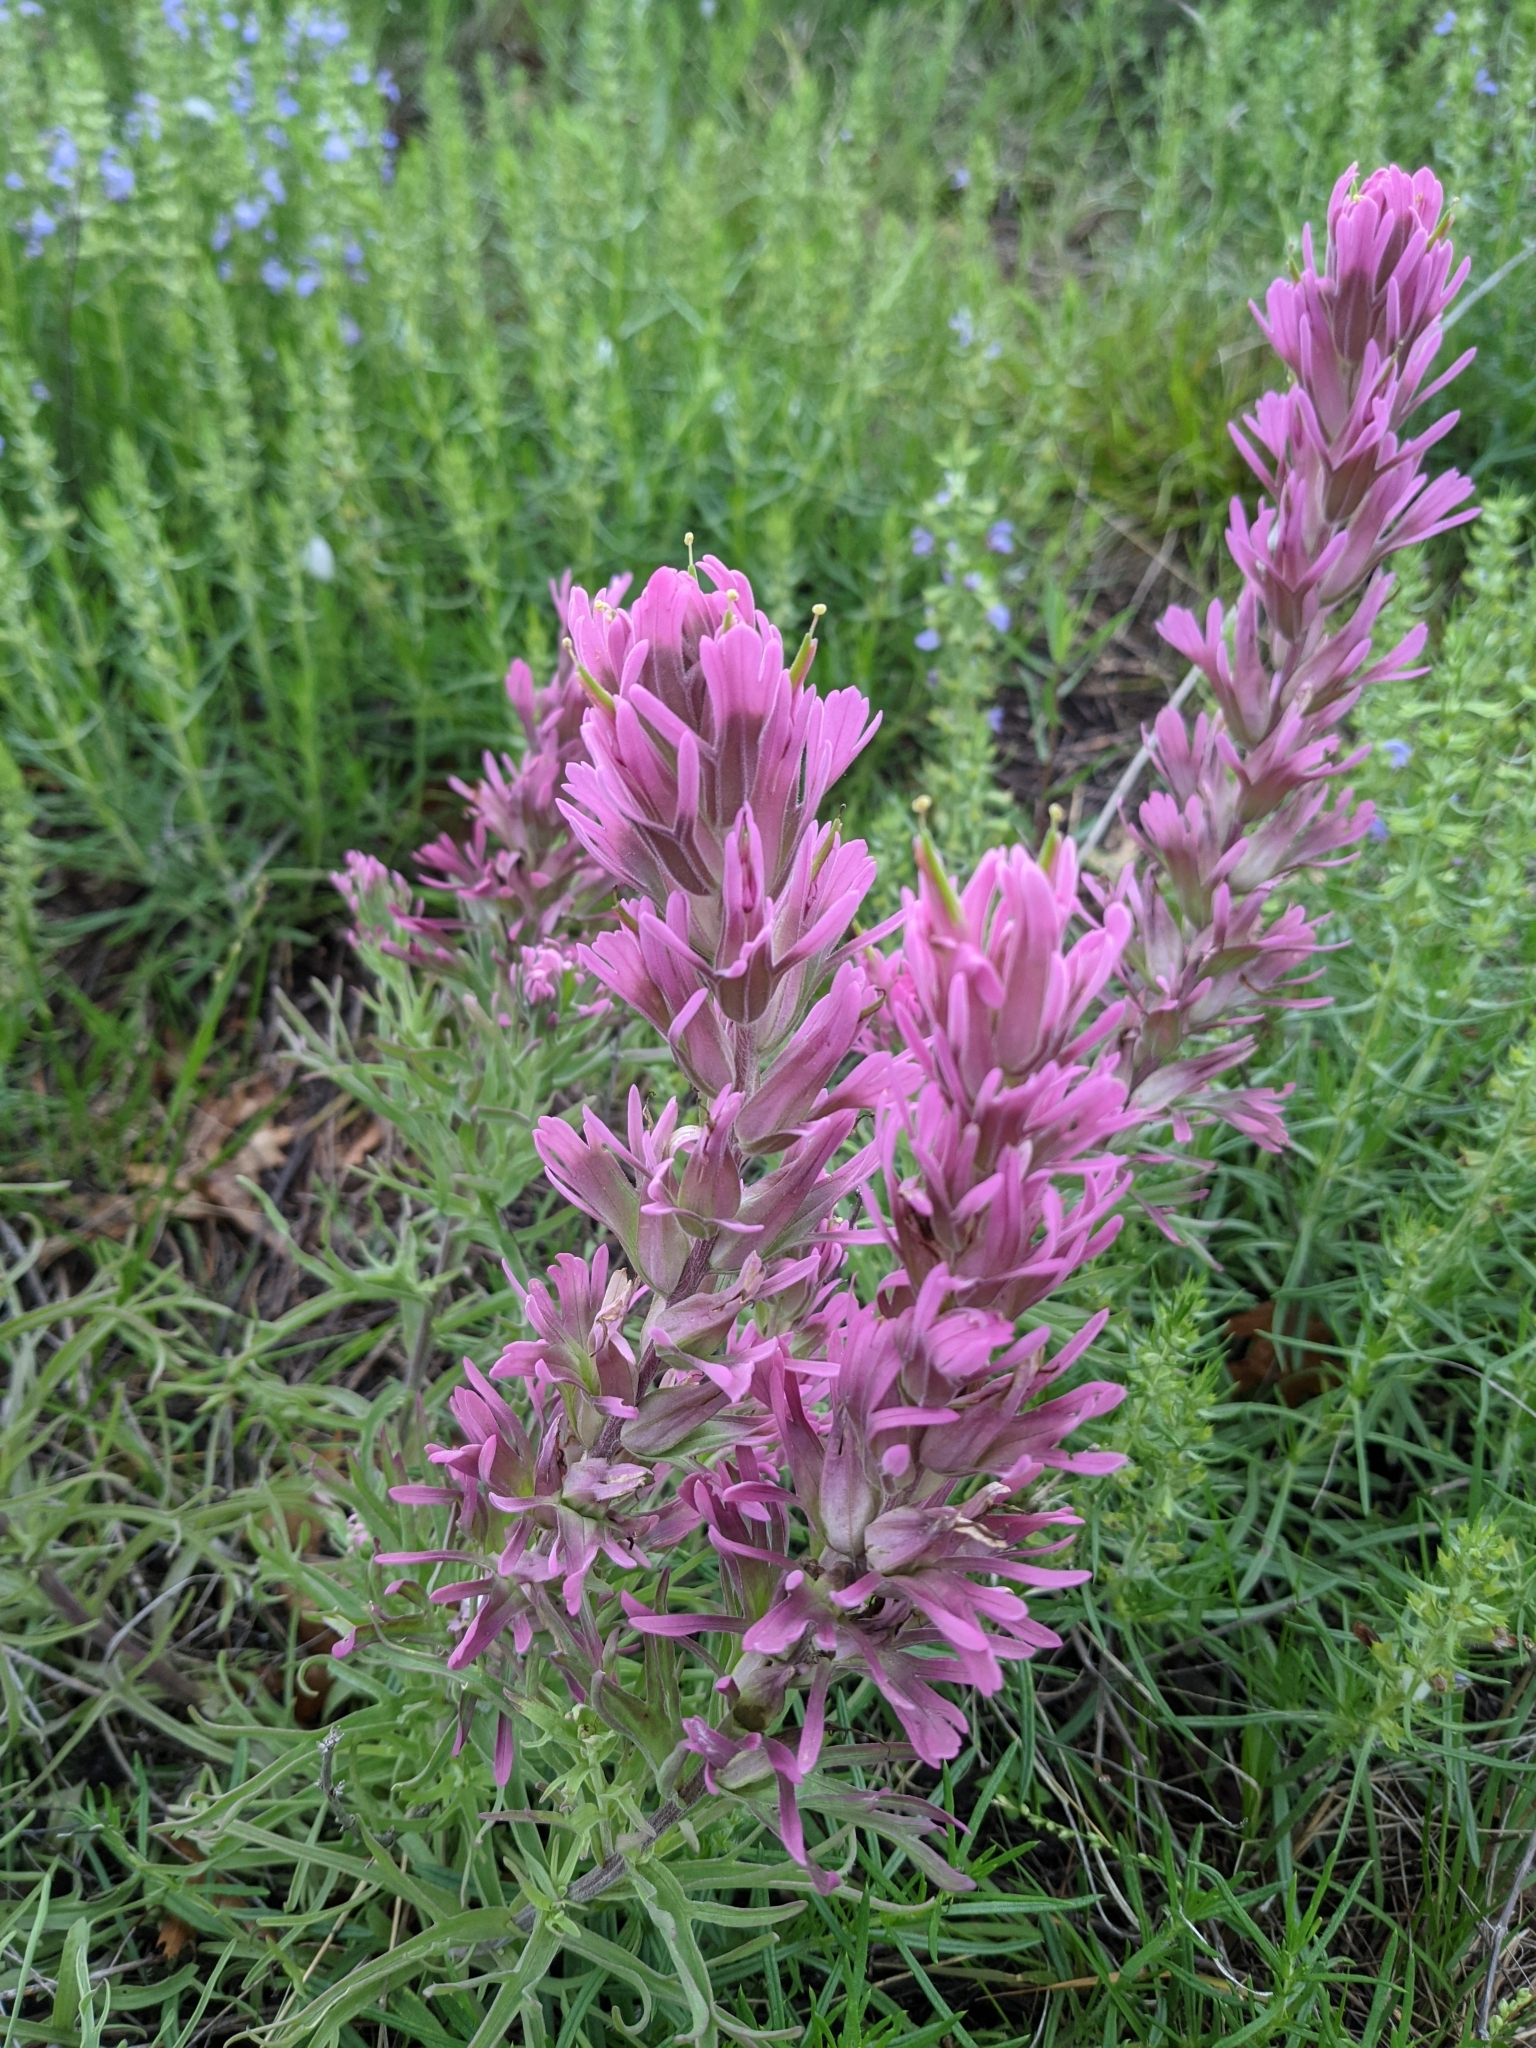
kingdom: Plantae
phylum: Tracheophyta
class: Magnoliopsida
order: Lamiales
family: Orobanchaceae
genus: Castilleja
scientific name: Castilleja purpurea
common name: Plains paintbrush
